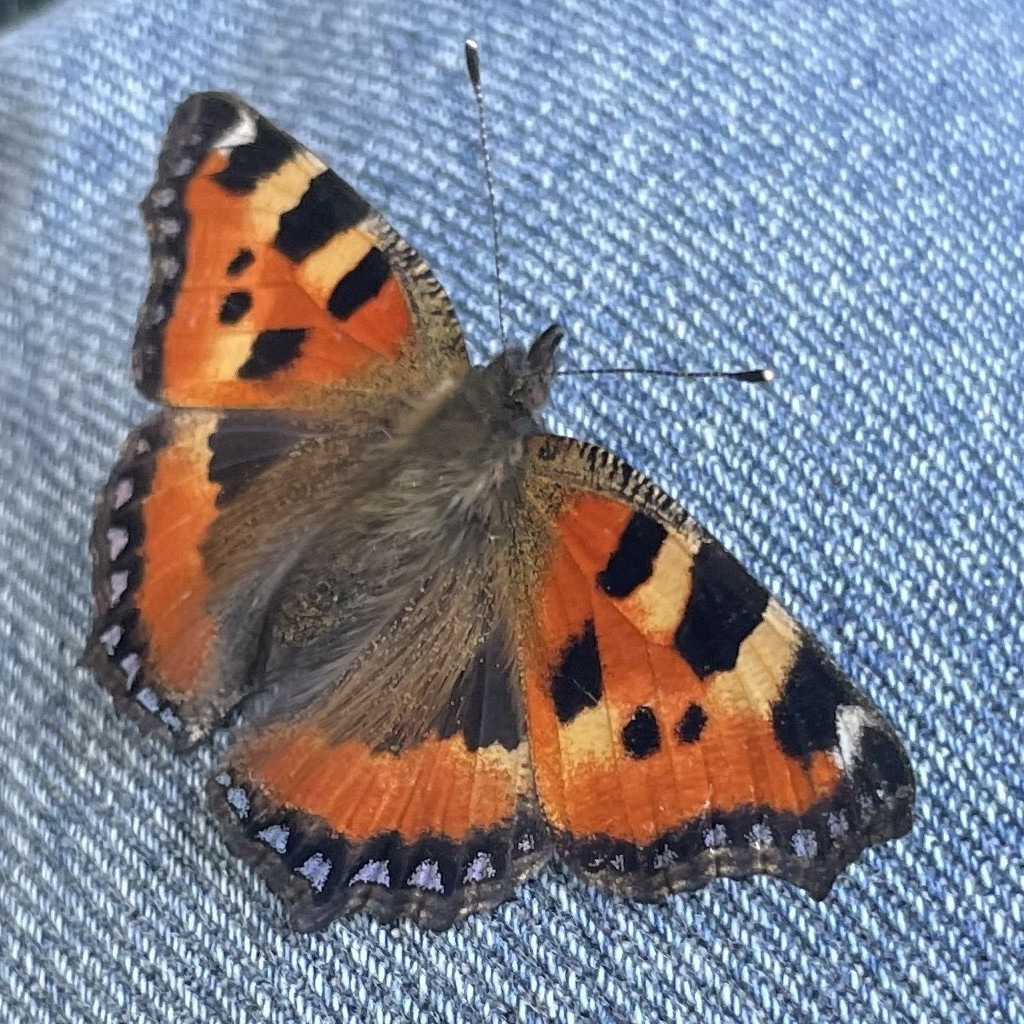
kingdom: Animalia
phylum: Arthropoda
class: Insecta
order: Lepidoptera
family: Nymphalidae
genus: Aglais
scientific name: Aglais urticae
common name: Small tortoiseshell
